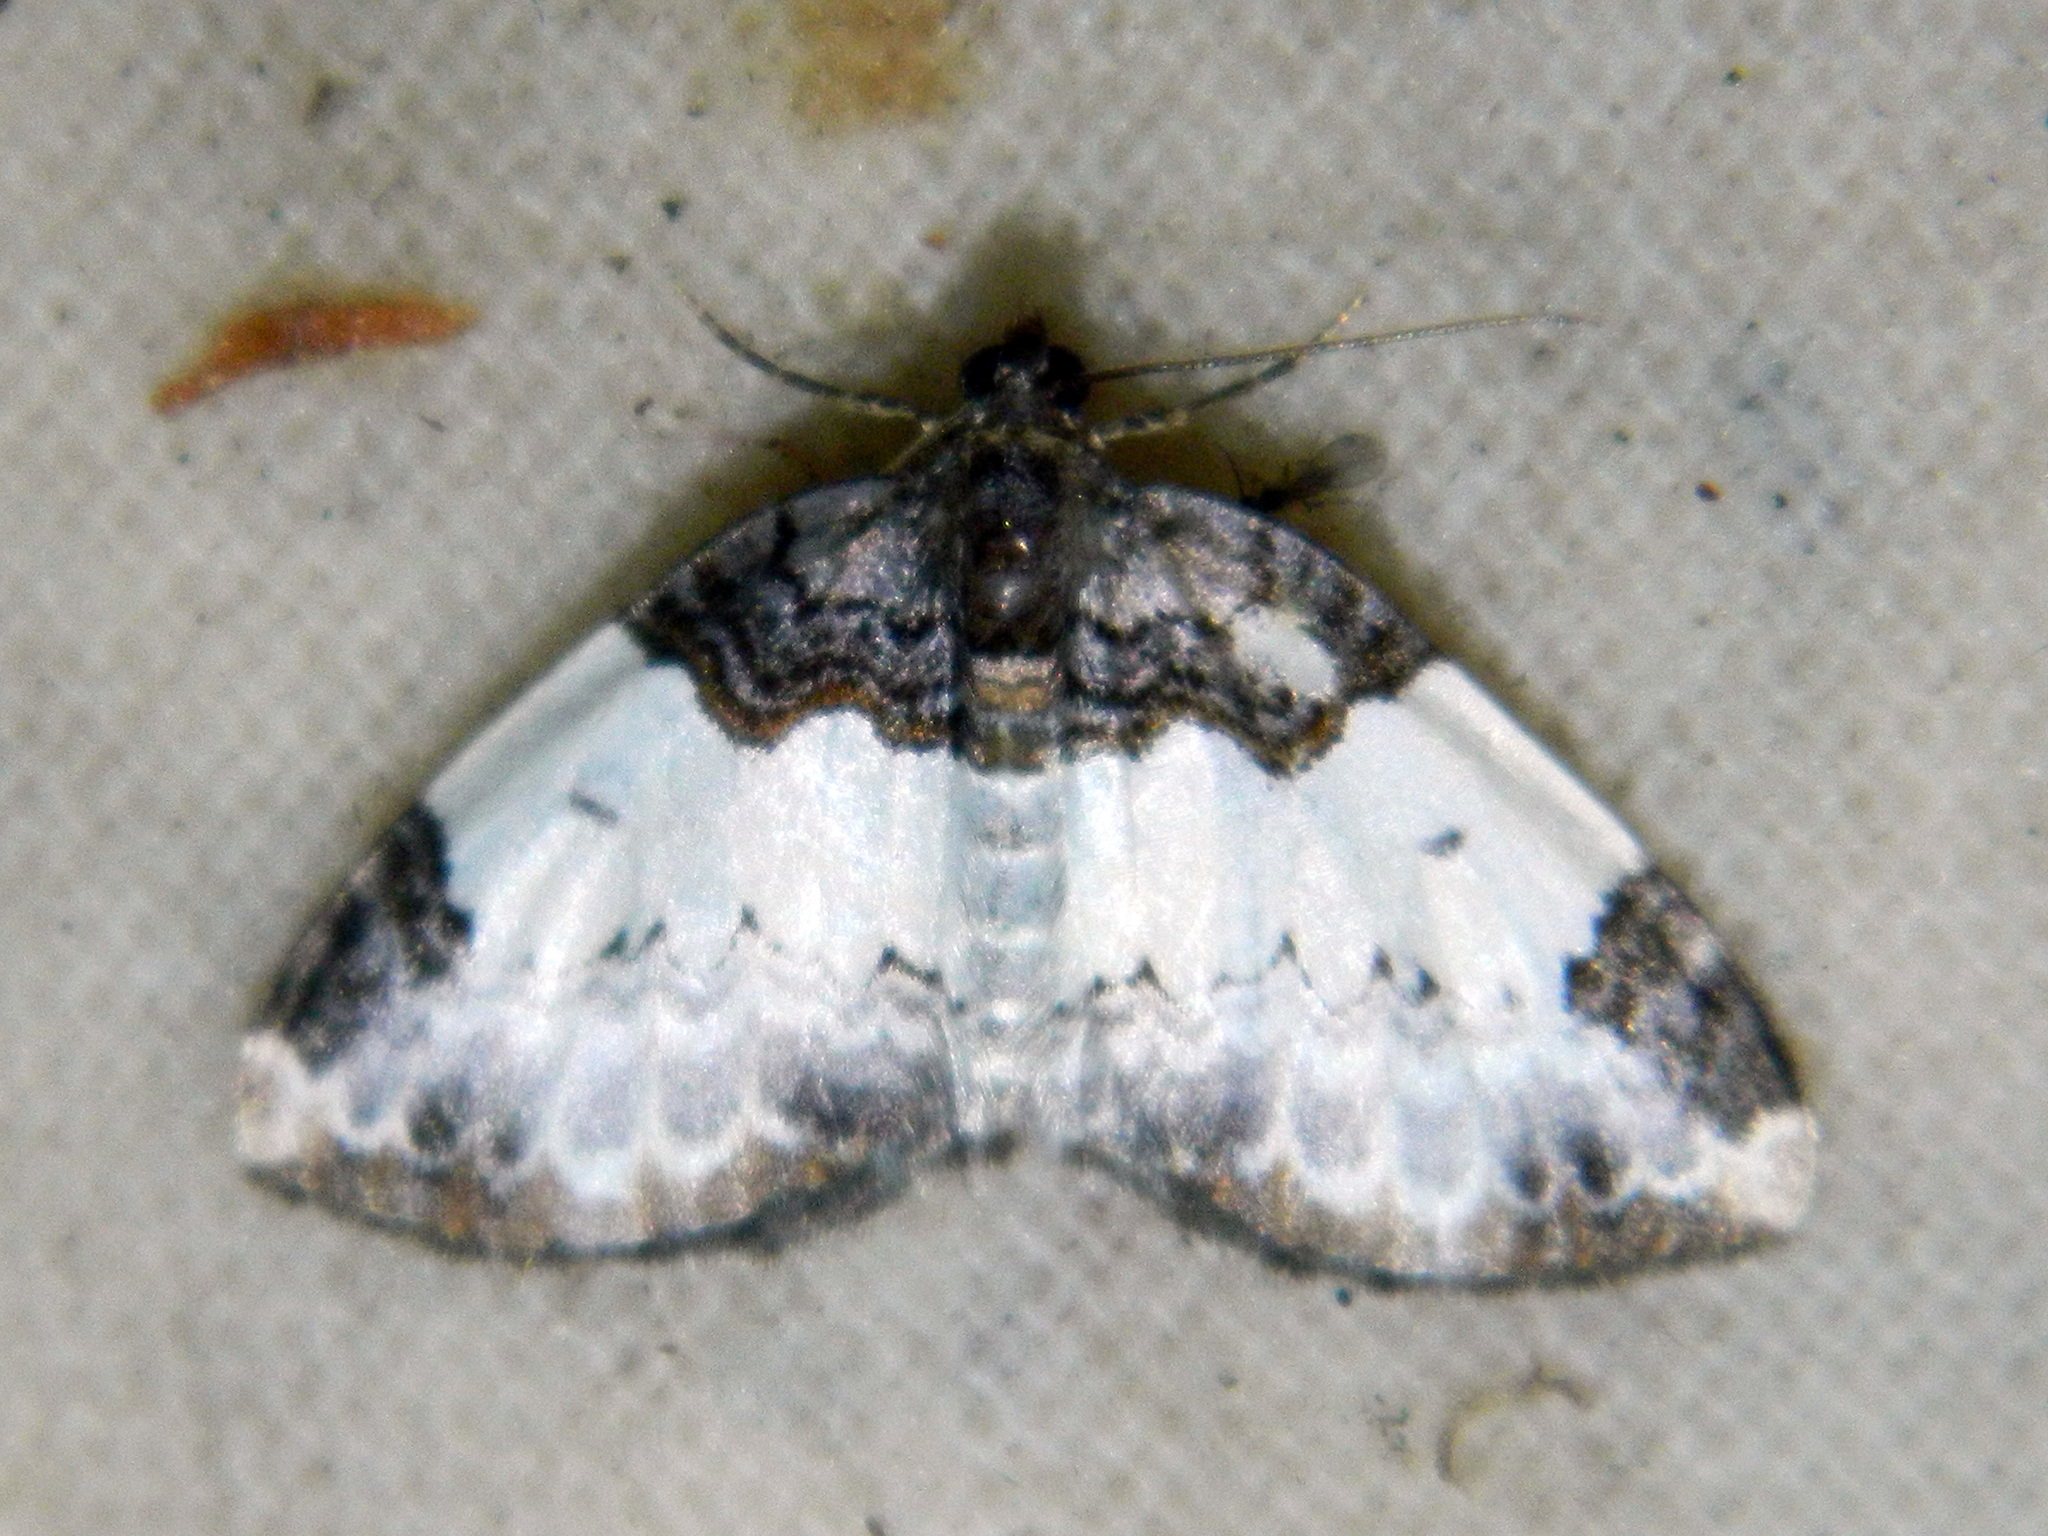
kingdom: Animalia
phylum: Arthropoda
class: Insecta
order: Lepidoptera
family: Geometridae
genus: Mesoleuca
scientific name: Mesoleuca ruficillata
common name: White-ribboned carpet moth
